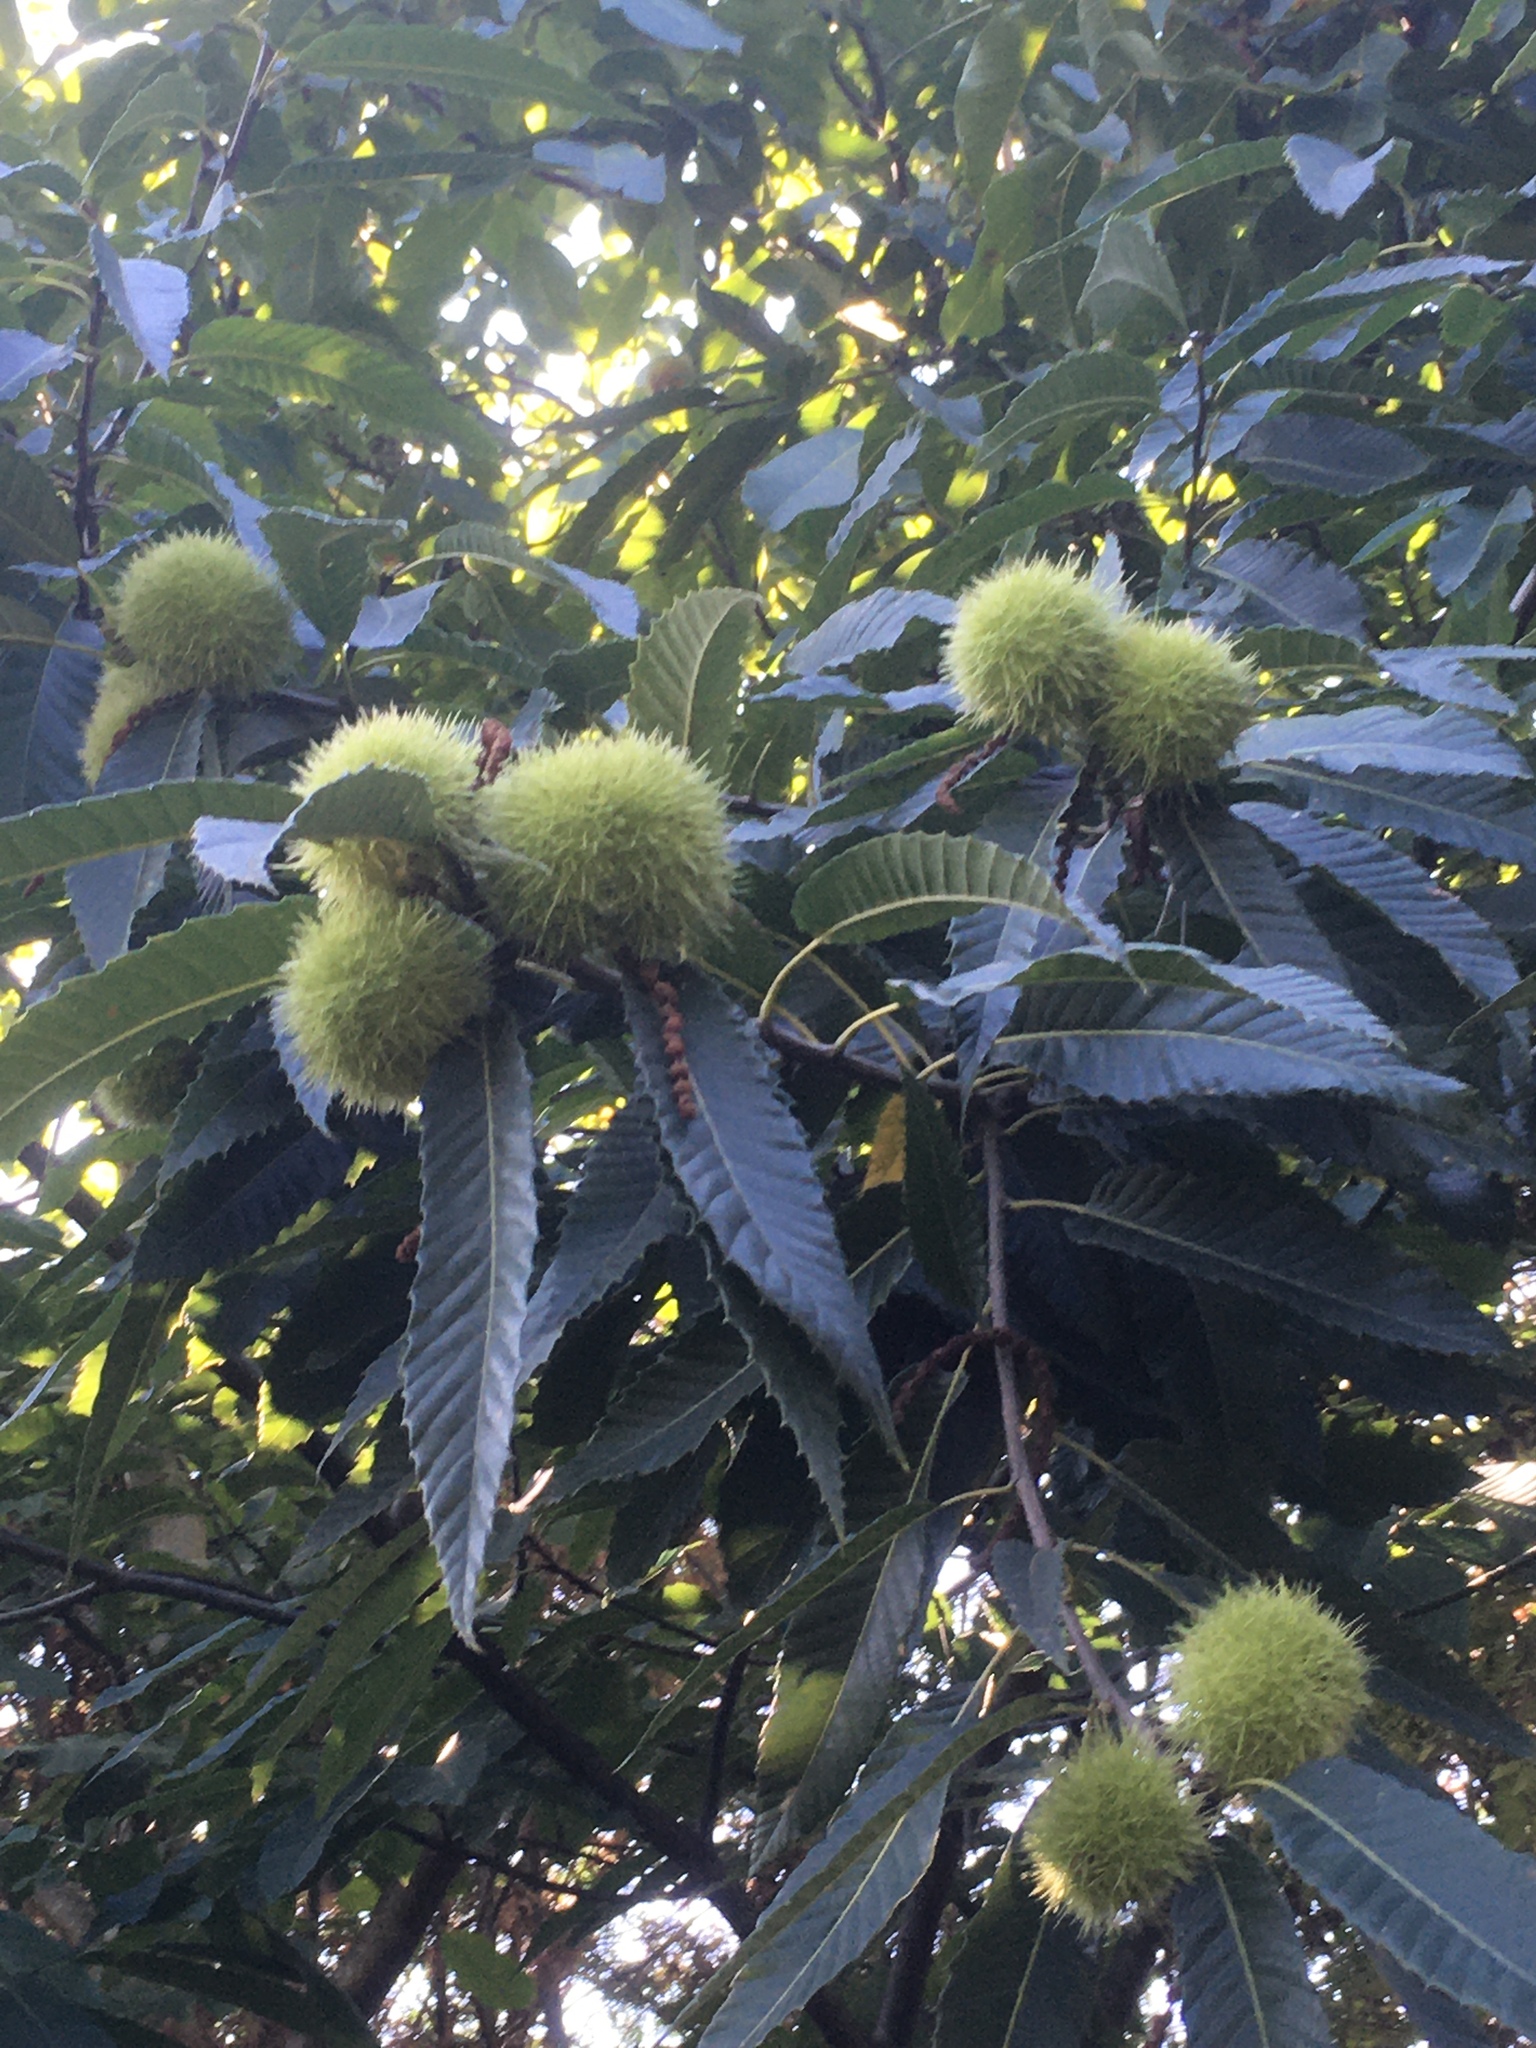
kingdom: Plantae
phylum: Tracheophyta
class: Magnoliopsida
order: Fagales
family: Fagaceae
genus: Castanea
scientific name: Castanea sativa
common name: Sweet chestnut
